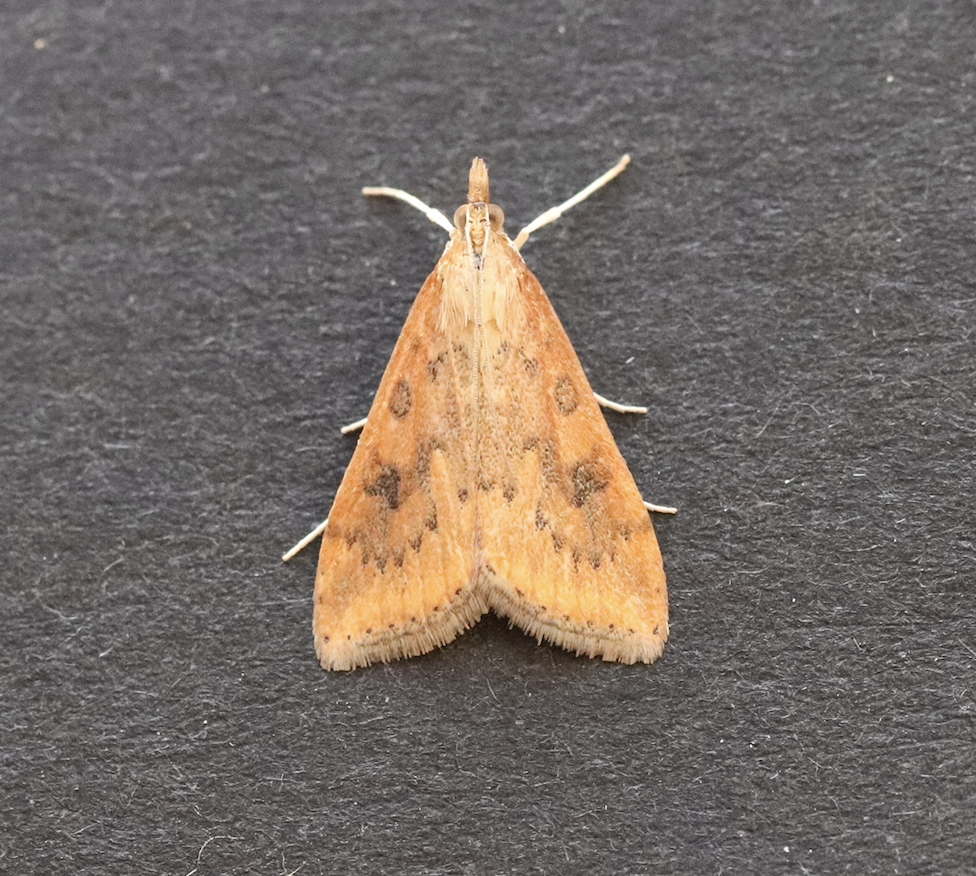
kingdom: Animalia
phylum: Arthropoda
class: Insecta
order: Lepidoptera
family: Crambidae
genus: Udea
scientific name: Udea ferrugalis
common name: Rusty dot
